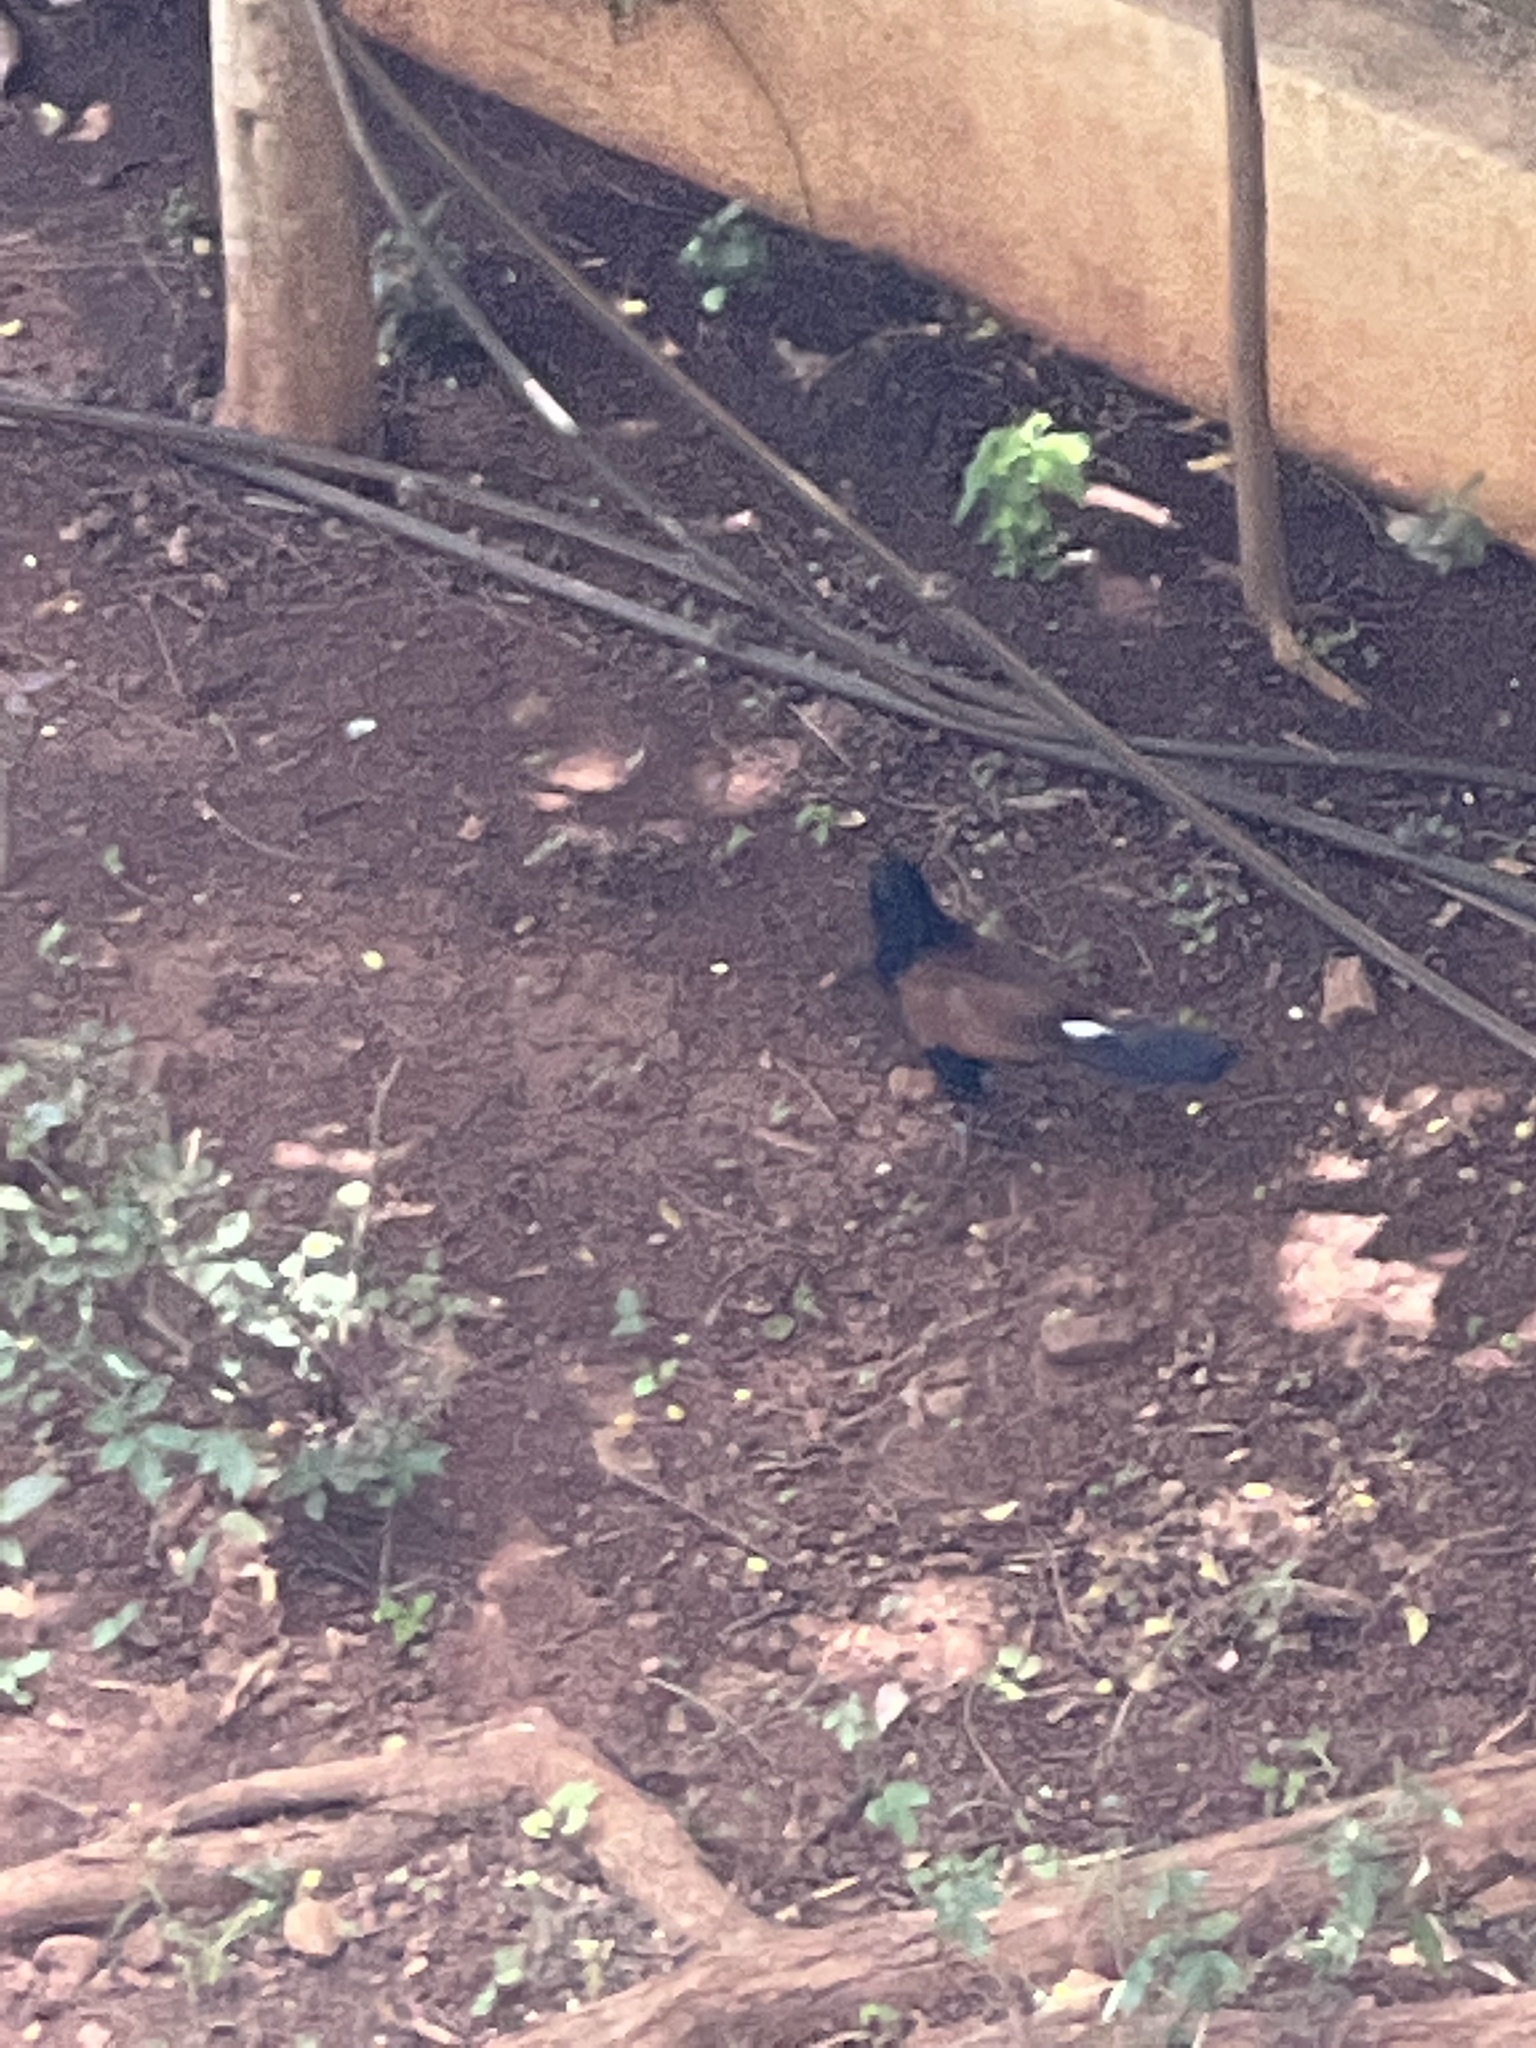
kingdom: Animalia
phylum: Chordata
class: Aves
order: Cuculiformes
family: Cuculidae
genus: Centropus
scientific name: Centropus sinensis
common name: Greater coucal
